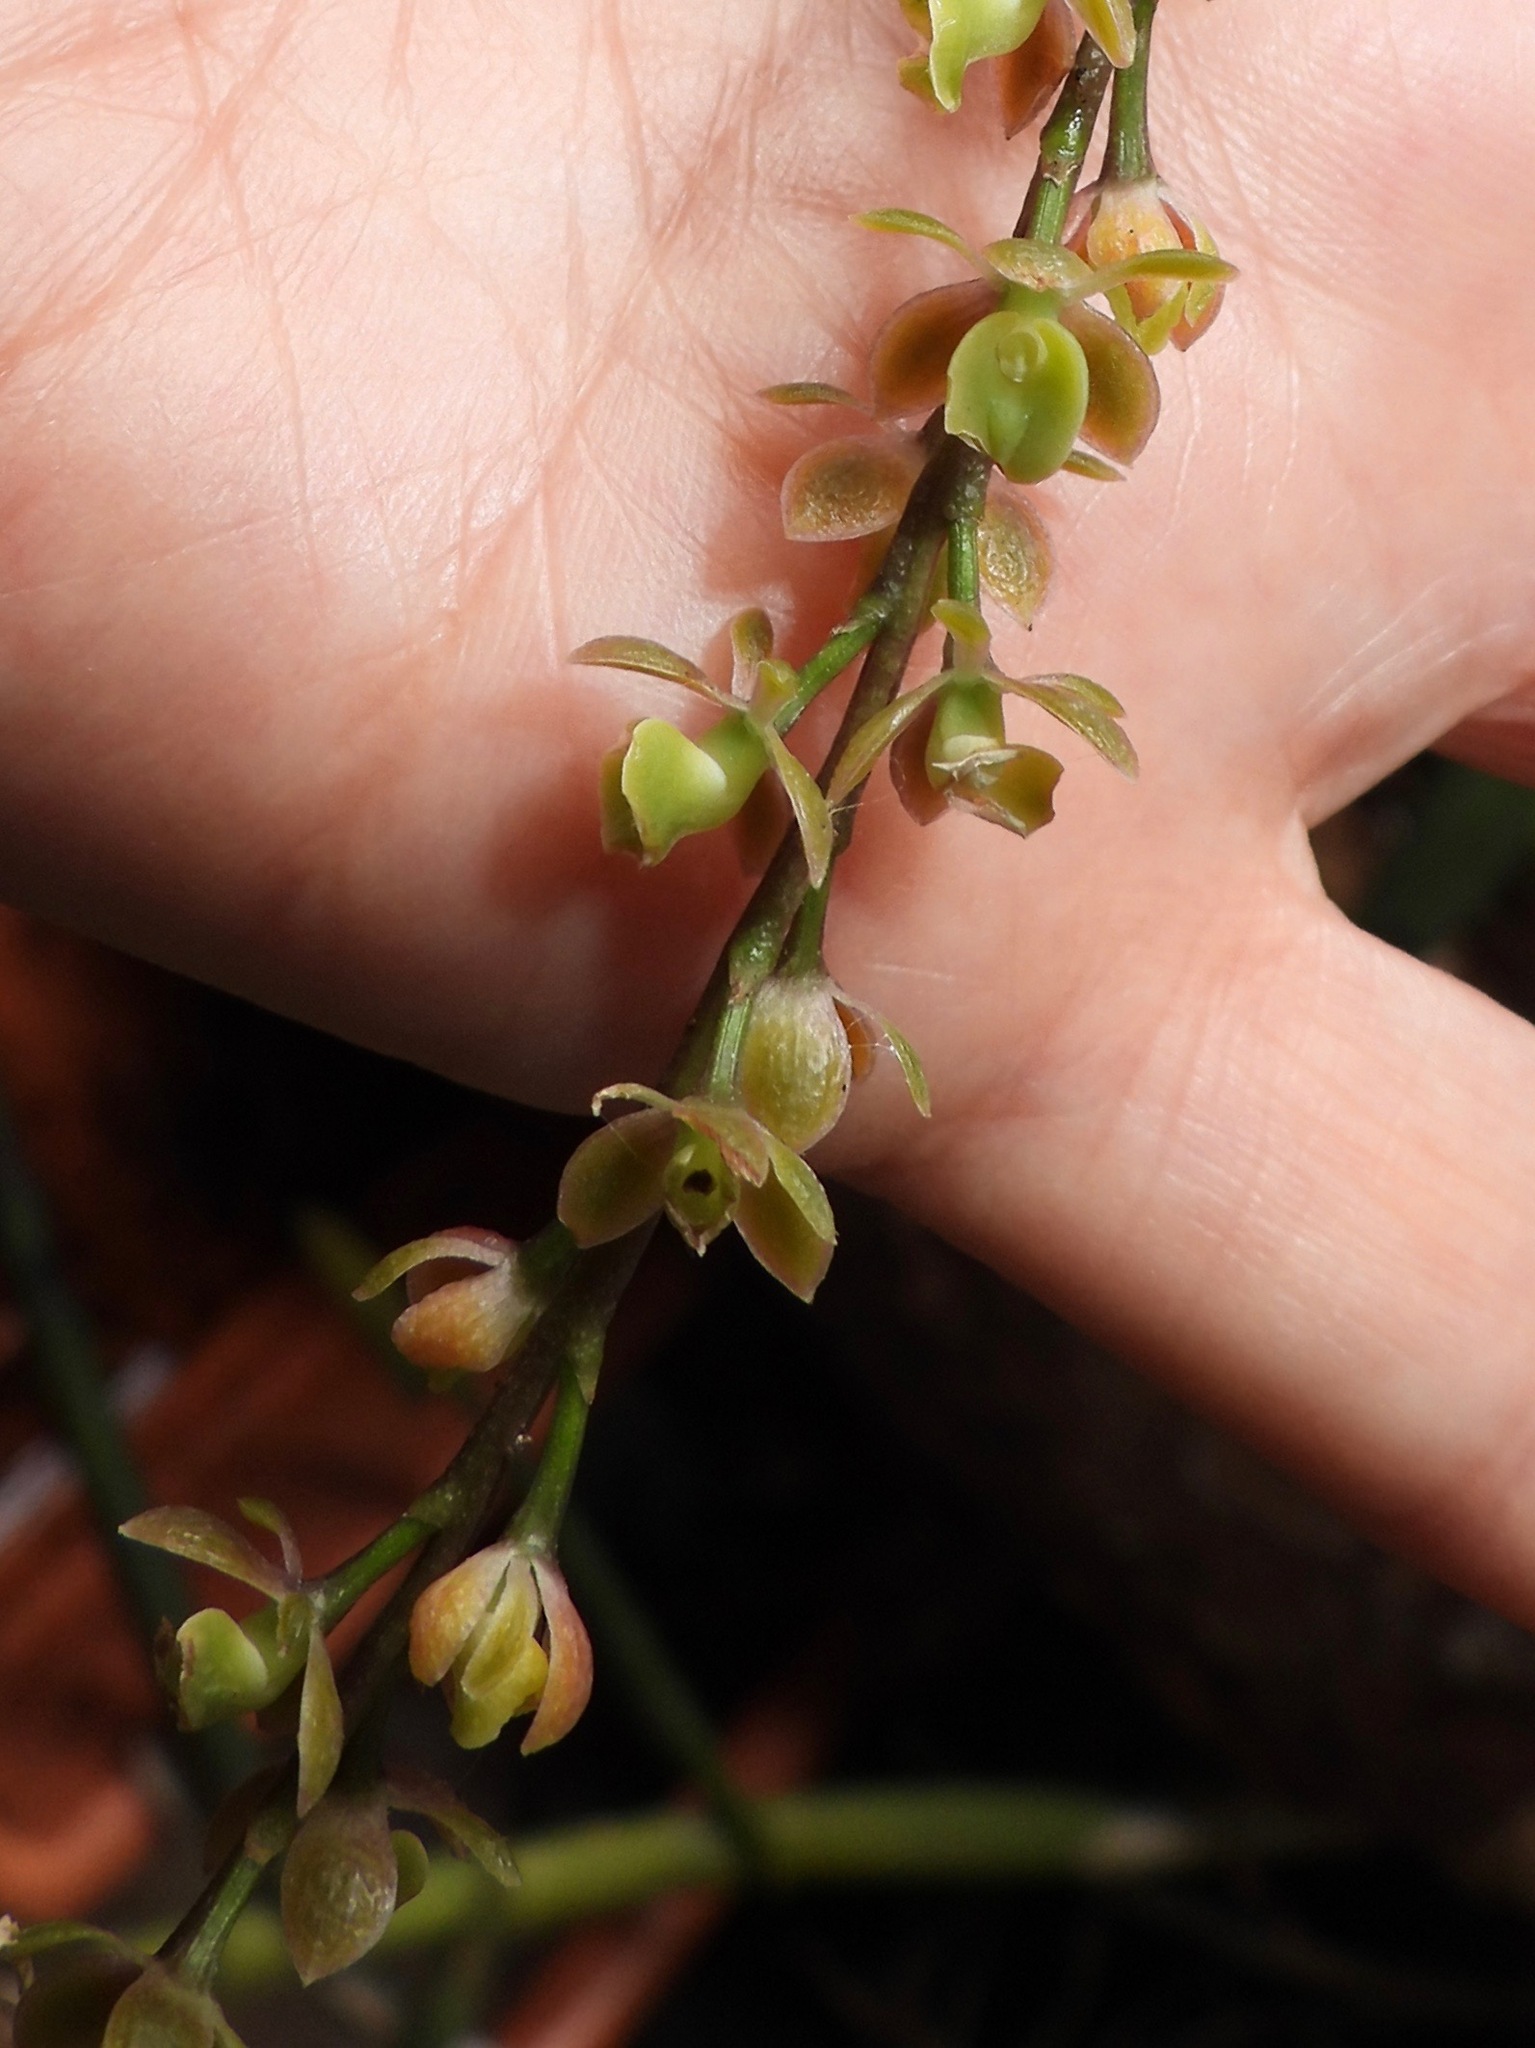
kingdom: Plantae
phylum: Tracheophyta
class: Liliopsida
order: Asparagales
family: Orchidaceae
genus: Epidendrum
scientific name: Epidendrum laucheanum
